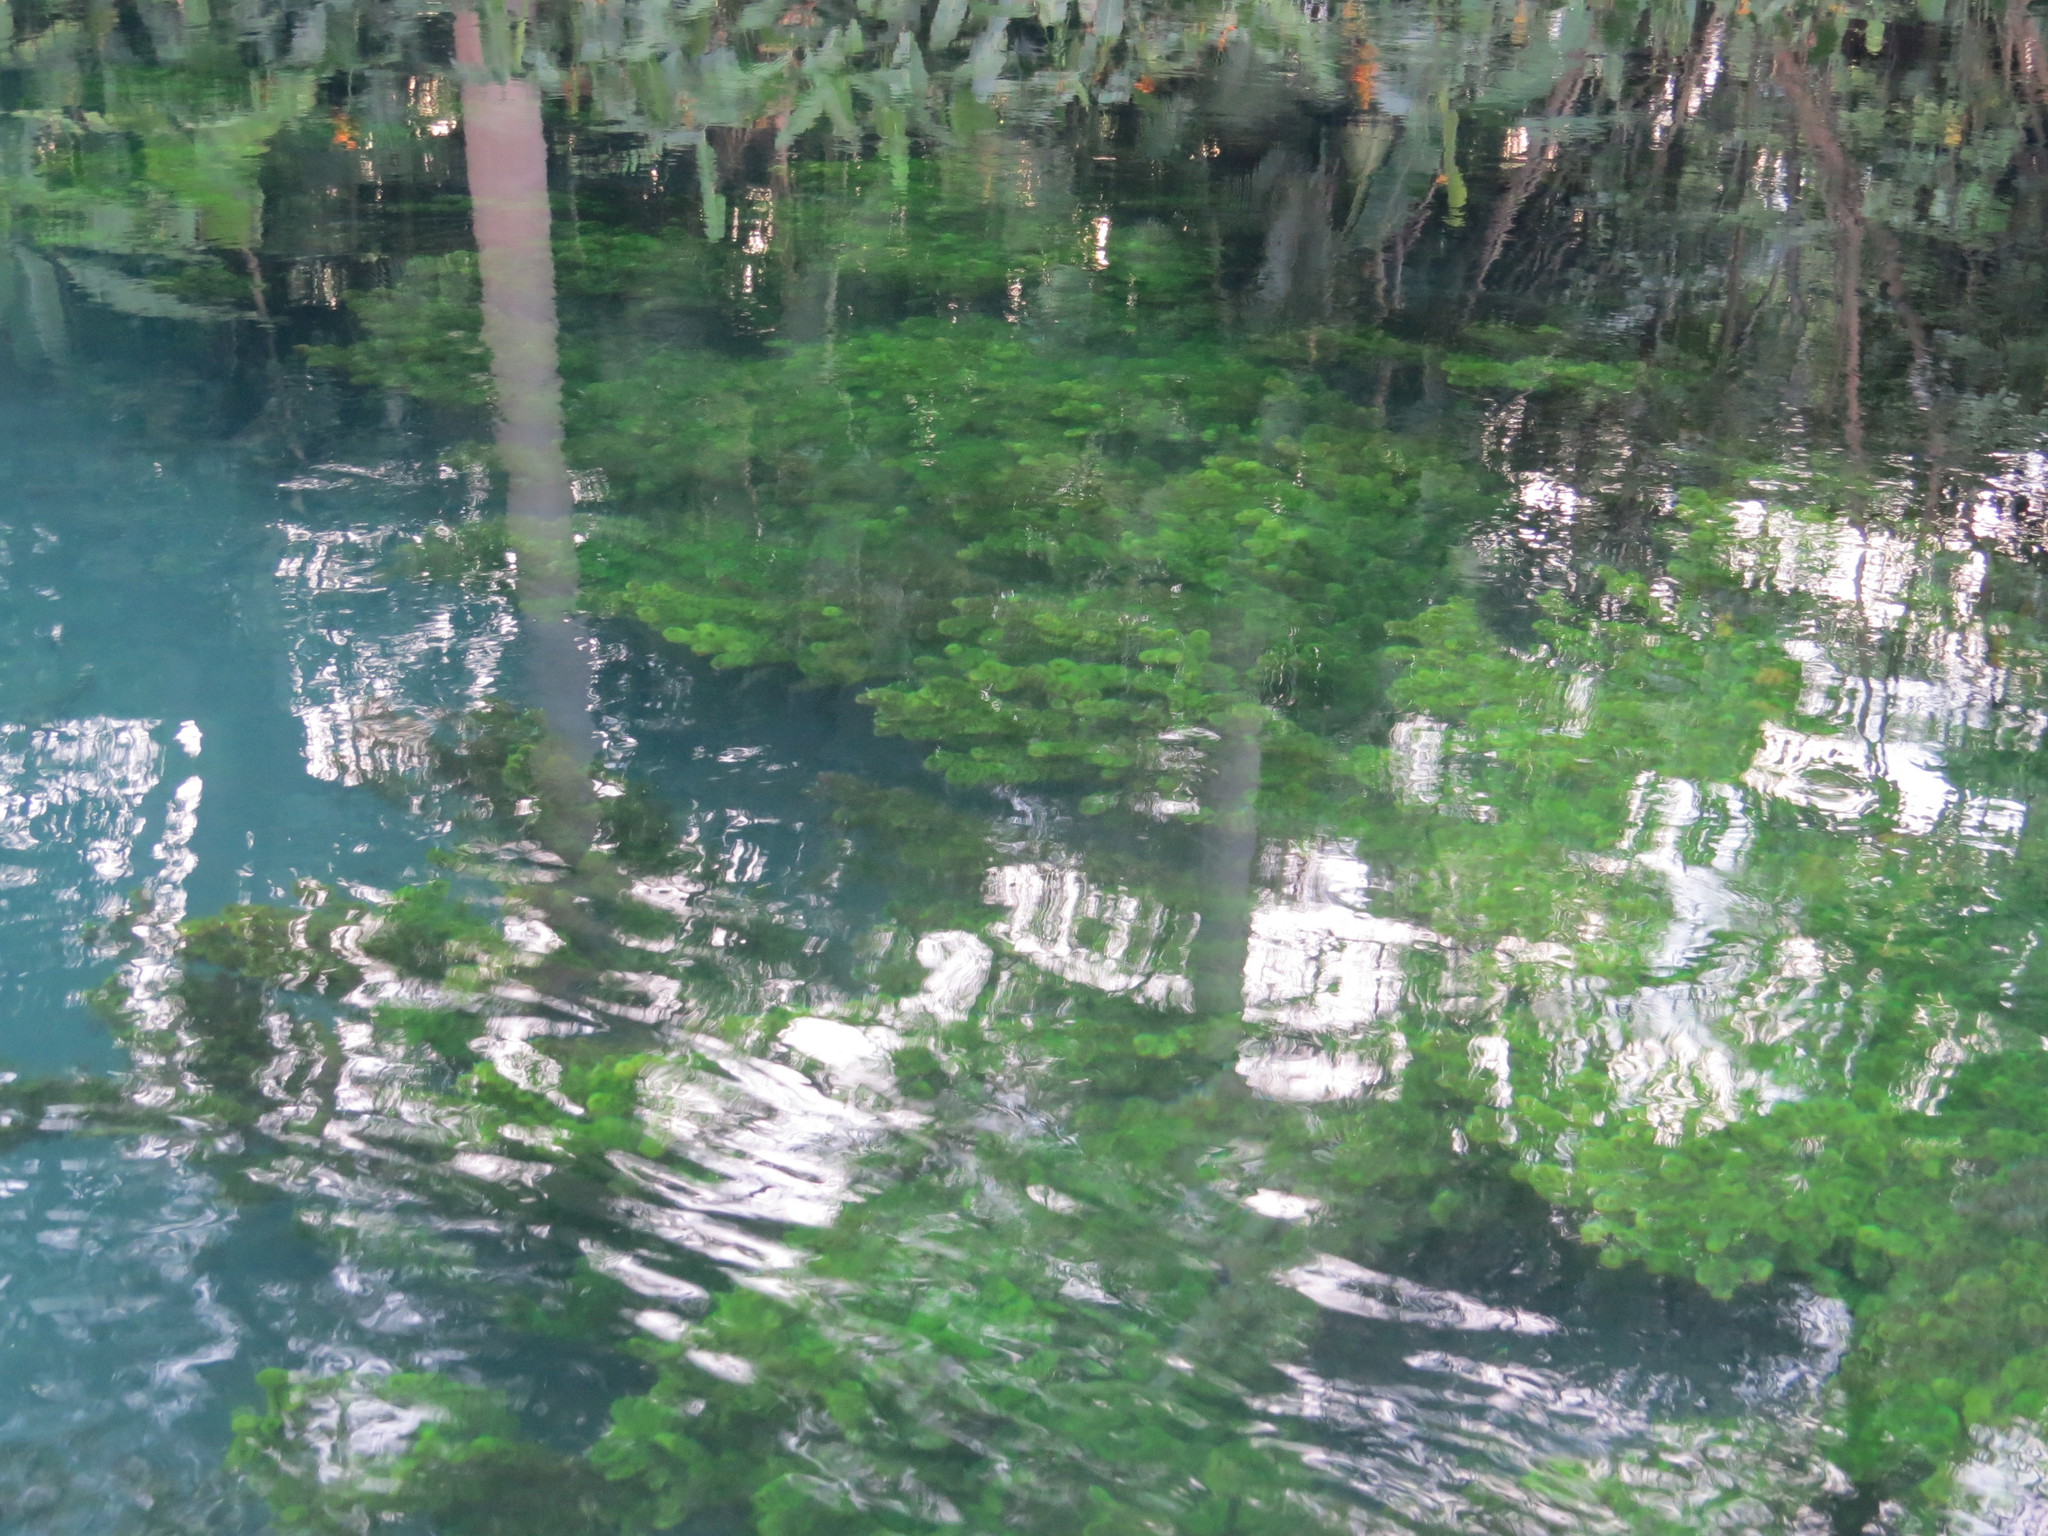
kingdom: Plantae
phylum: Tracheophyta
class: Magnoliopsida
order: Nymphaeales
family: Cabombaceae
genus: Cabomba
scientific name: Cabomba palaeformis
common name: Fish-grass
